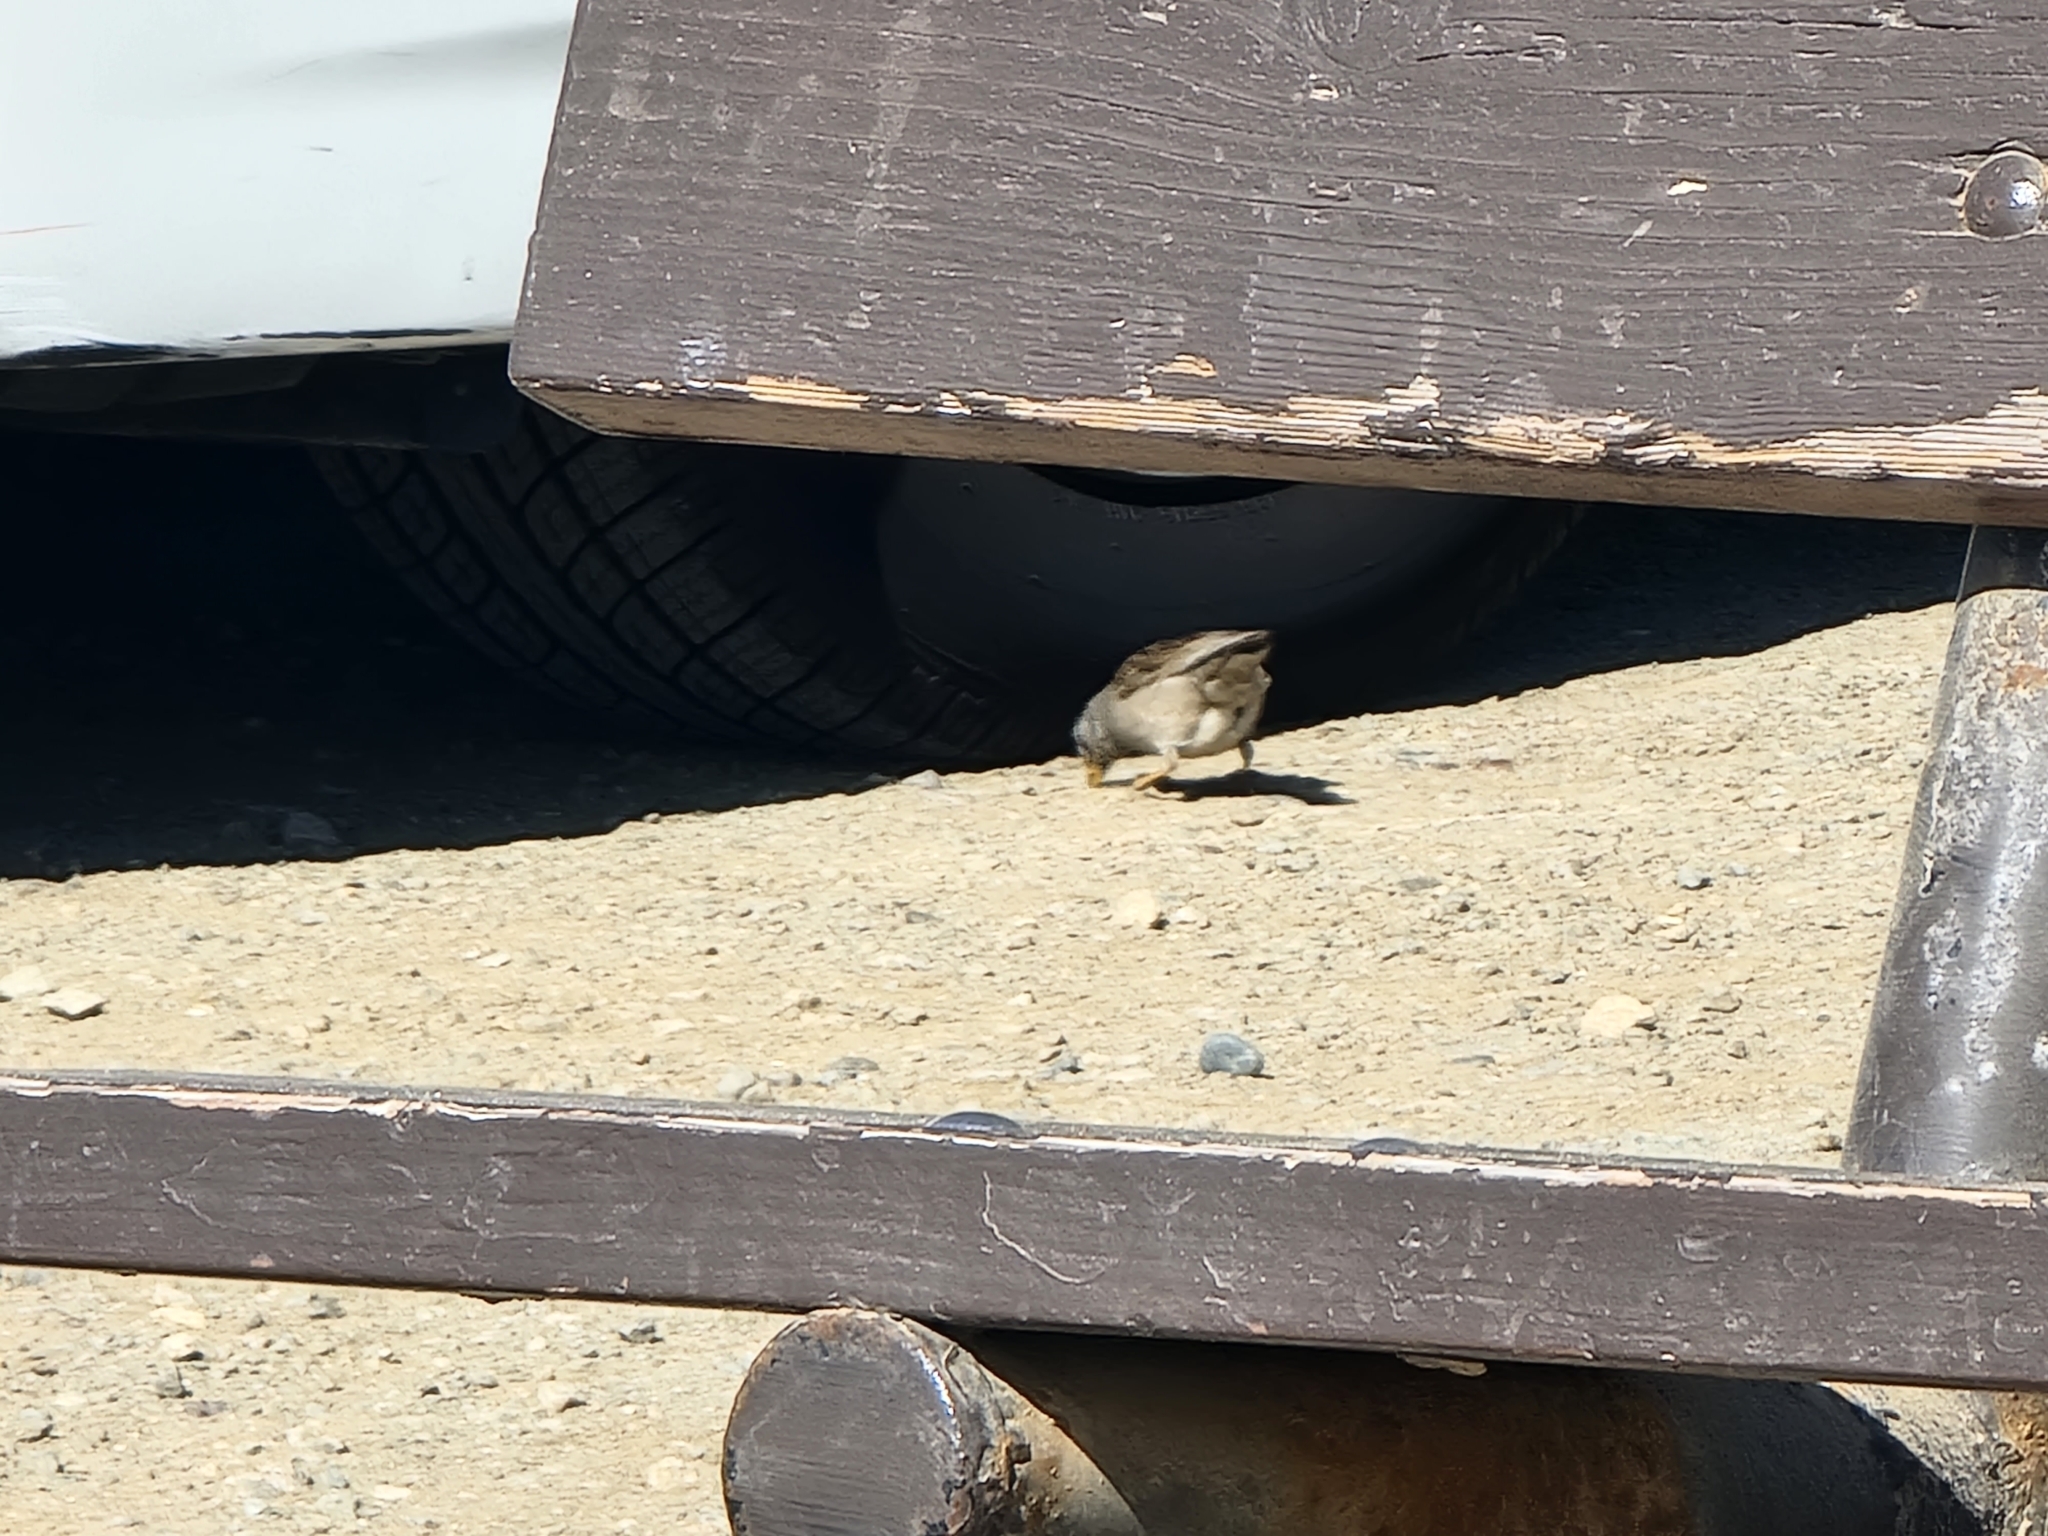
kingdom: Animalia
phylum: Chordata
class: Aves
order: Passeriformes
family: Passerellidae
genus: Zonotrichia
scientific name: Zonotrichia leucophrys
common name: White-crowned sparrow
